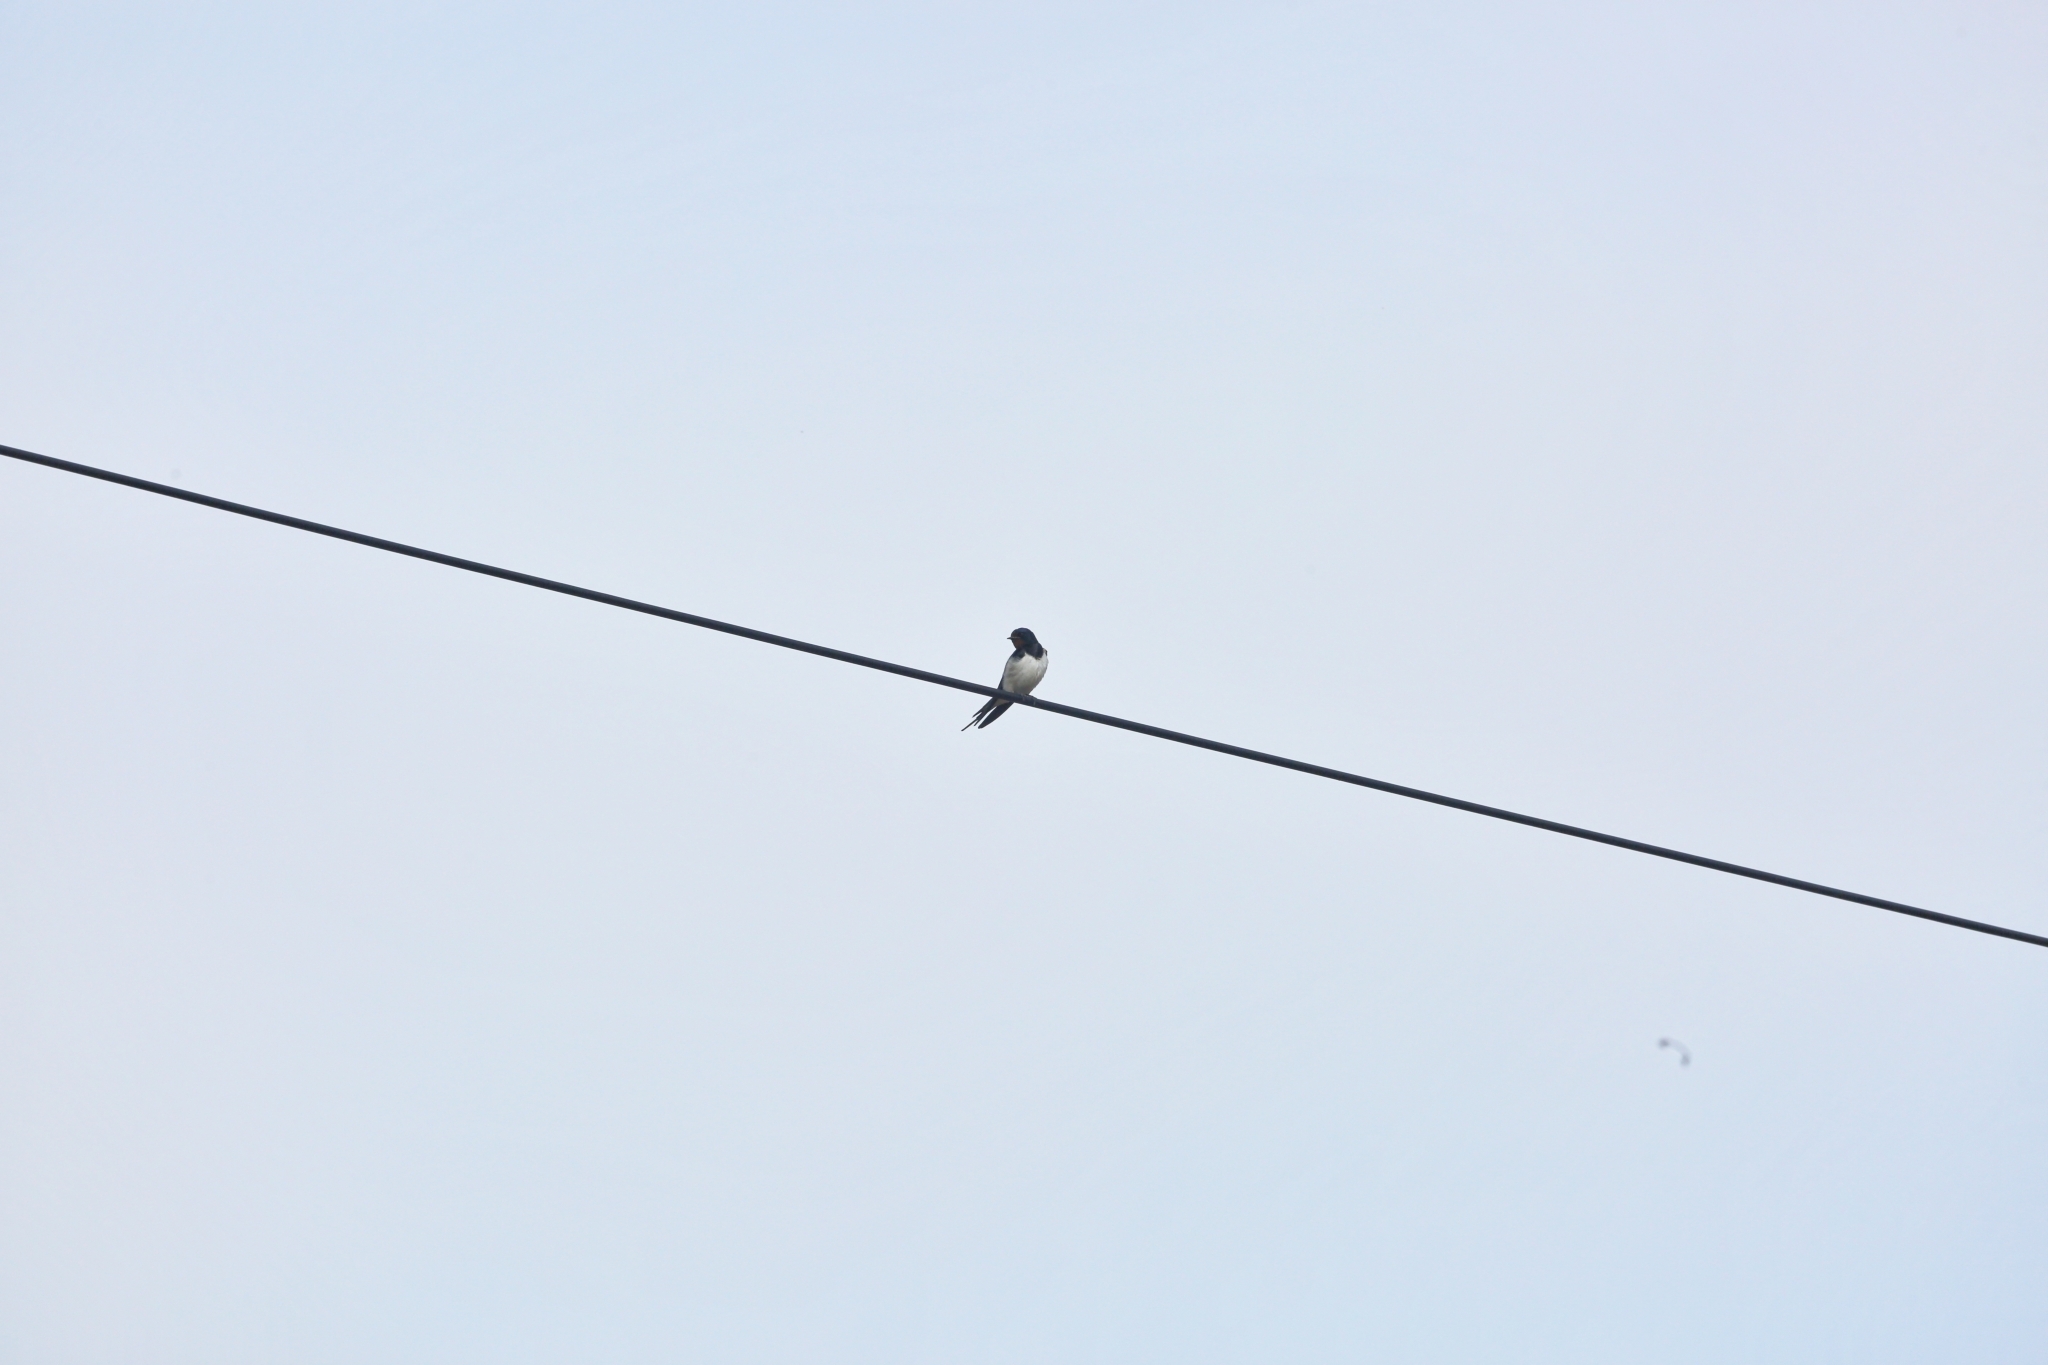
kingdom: Animalia
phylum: Chordata
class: Aves
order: Passeriformes
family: Hirundinidae
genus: Hirundo
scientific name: Hirundo rustica
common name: Barn swallow
